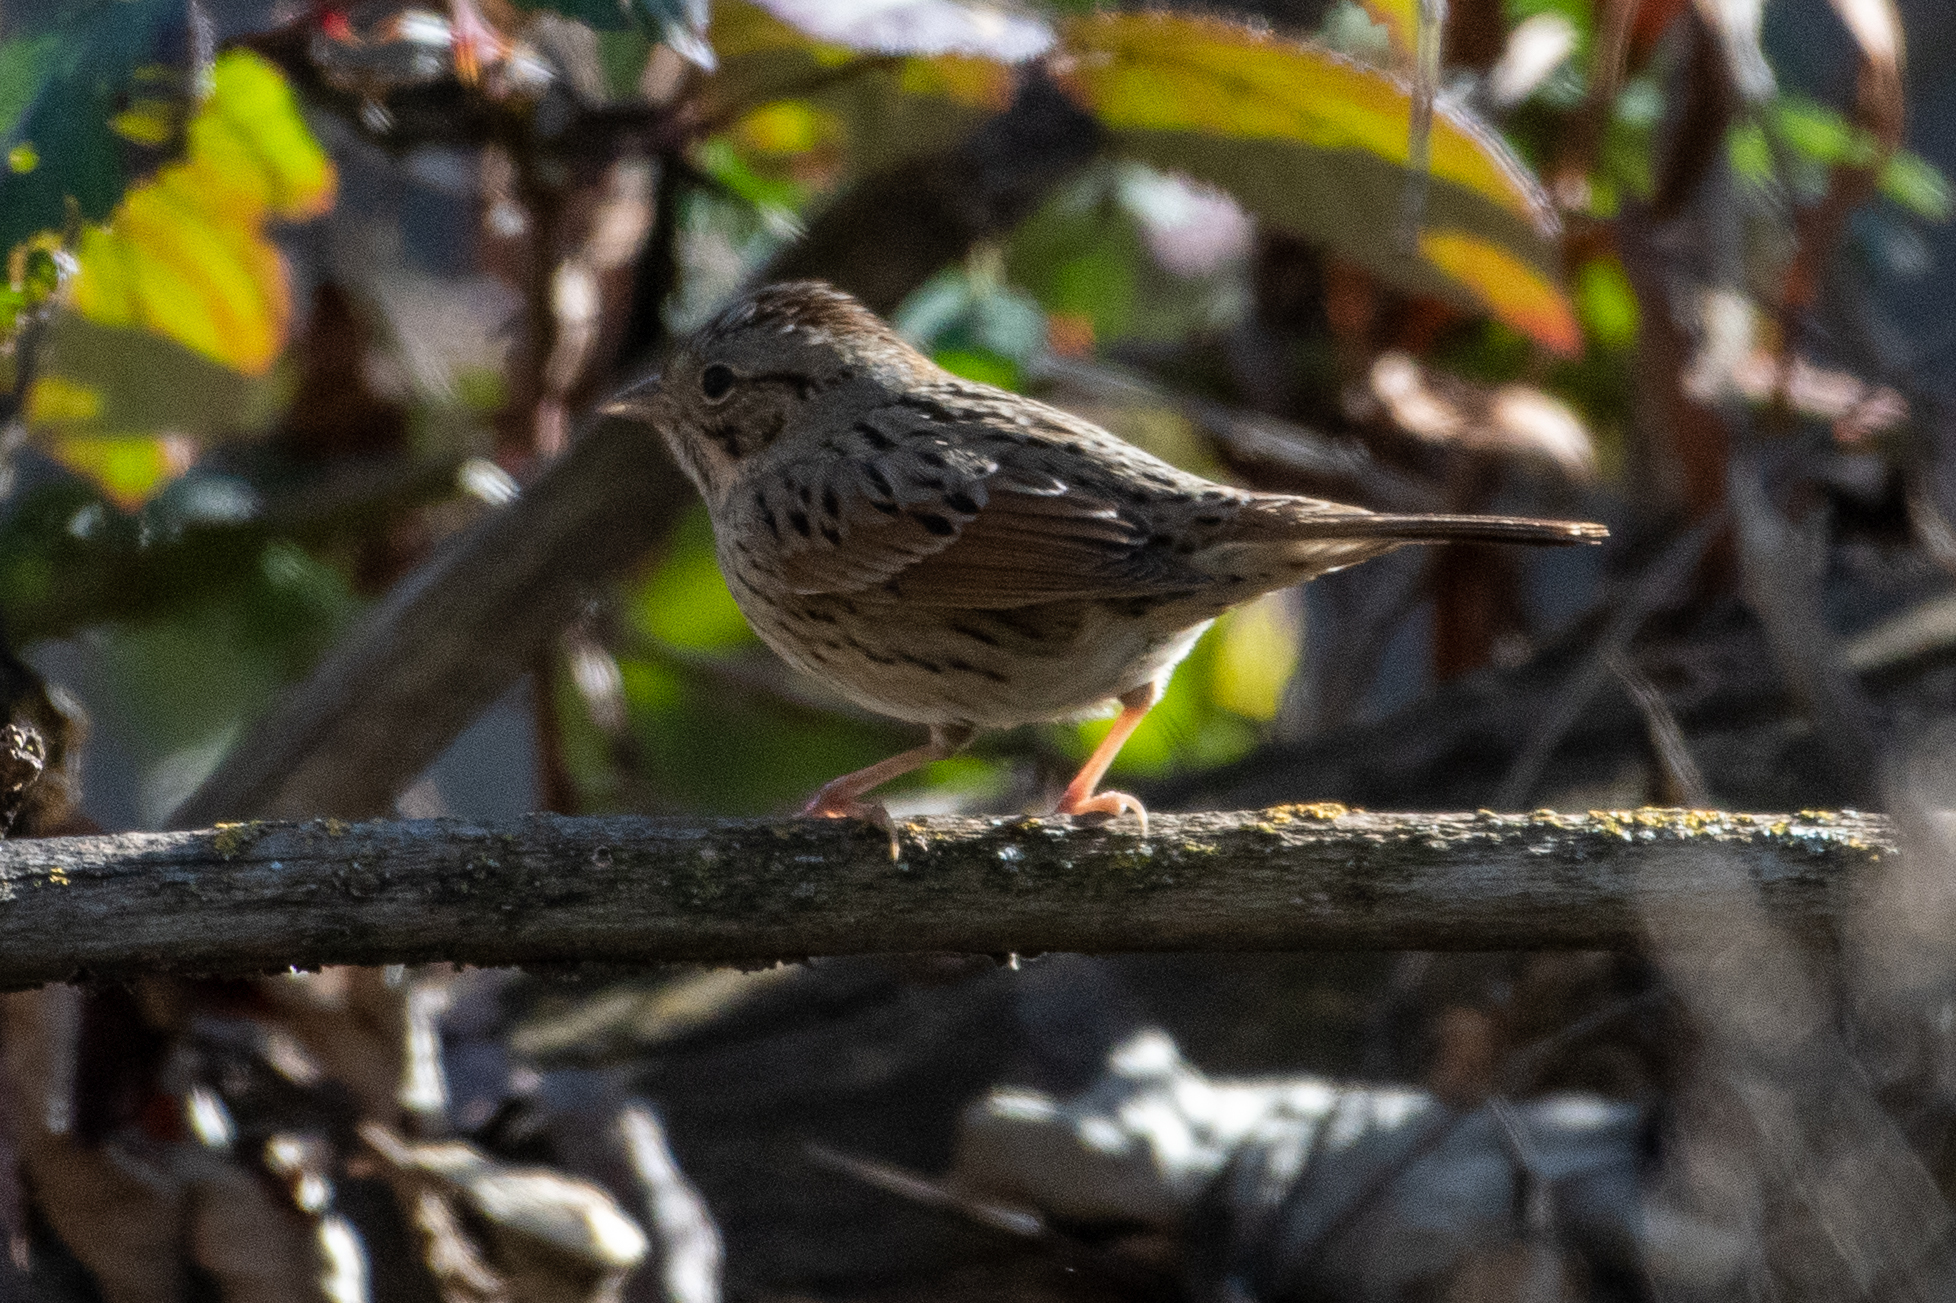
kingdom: Animalia
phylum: Chordata
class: Aves
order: Passeriformes
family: Passerellidae
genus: Melospiza
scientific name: Melospiza lincolnii
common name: Lincoln's sparrow
